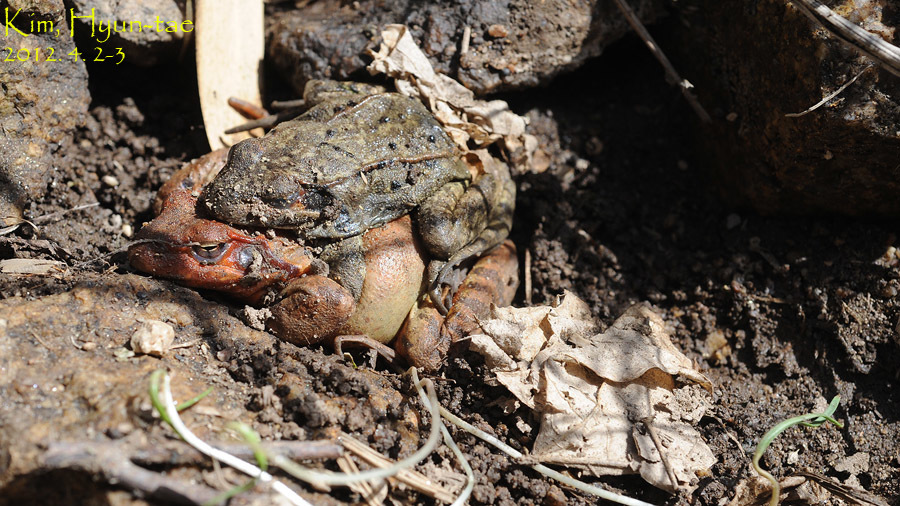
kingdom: Animalia
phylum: Chordata
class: Amphibia
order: Anura
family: Ranidae
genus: Rana
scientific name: Rana coreana
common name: Korean brown frog
